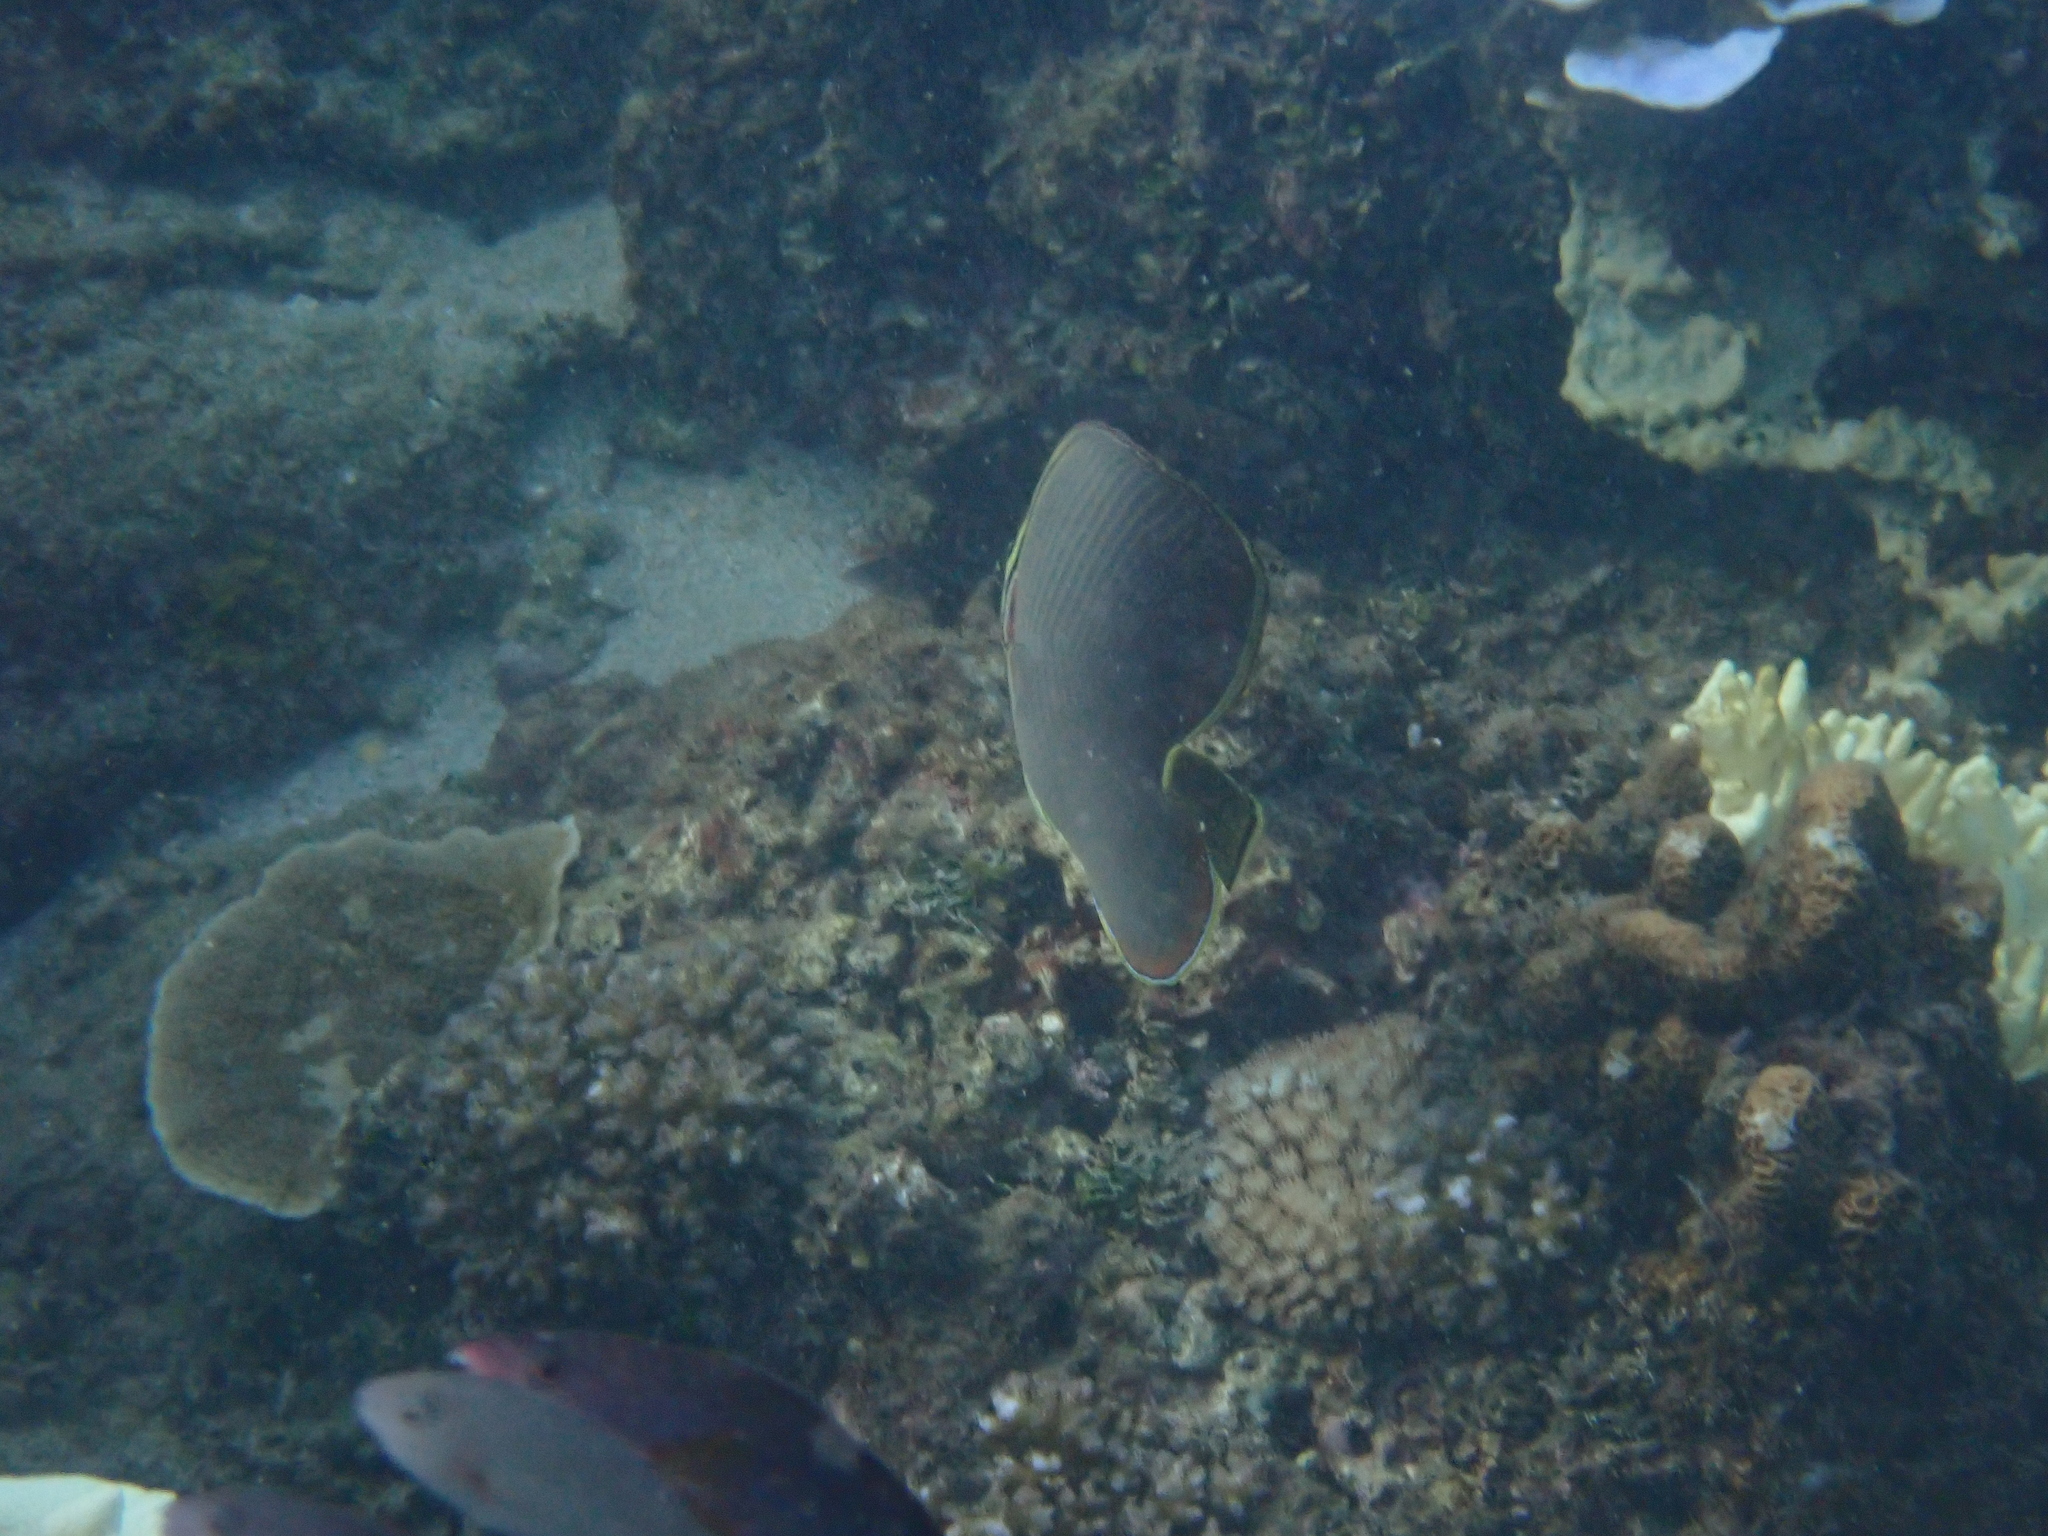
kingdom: Animalia
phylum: Chordata
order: Perciformes
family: Chaetodontidae
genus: Chaetodon
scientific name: Chaetodon baronessa
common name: Triangular butterflyfish
